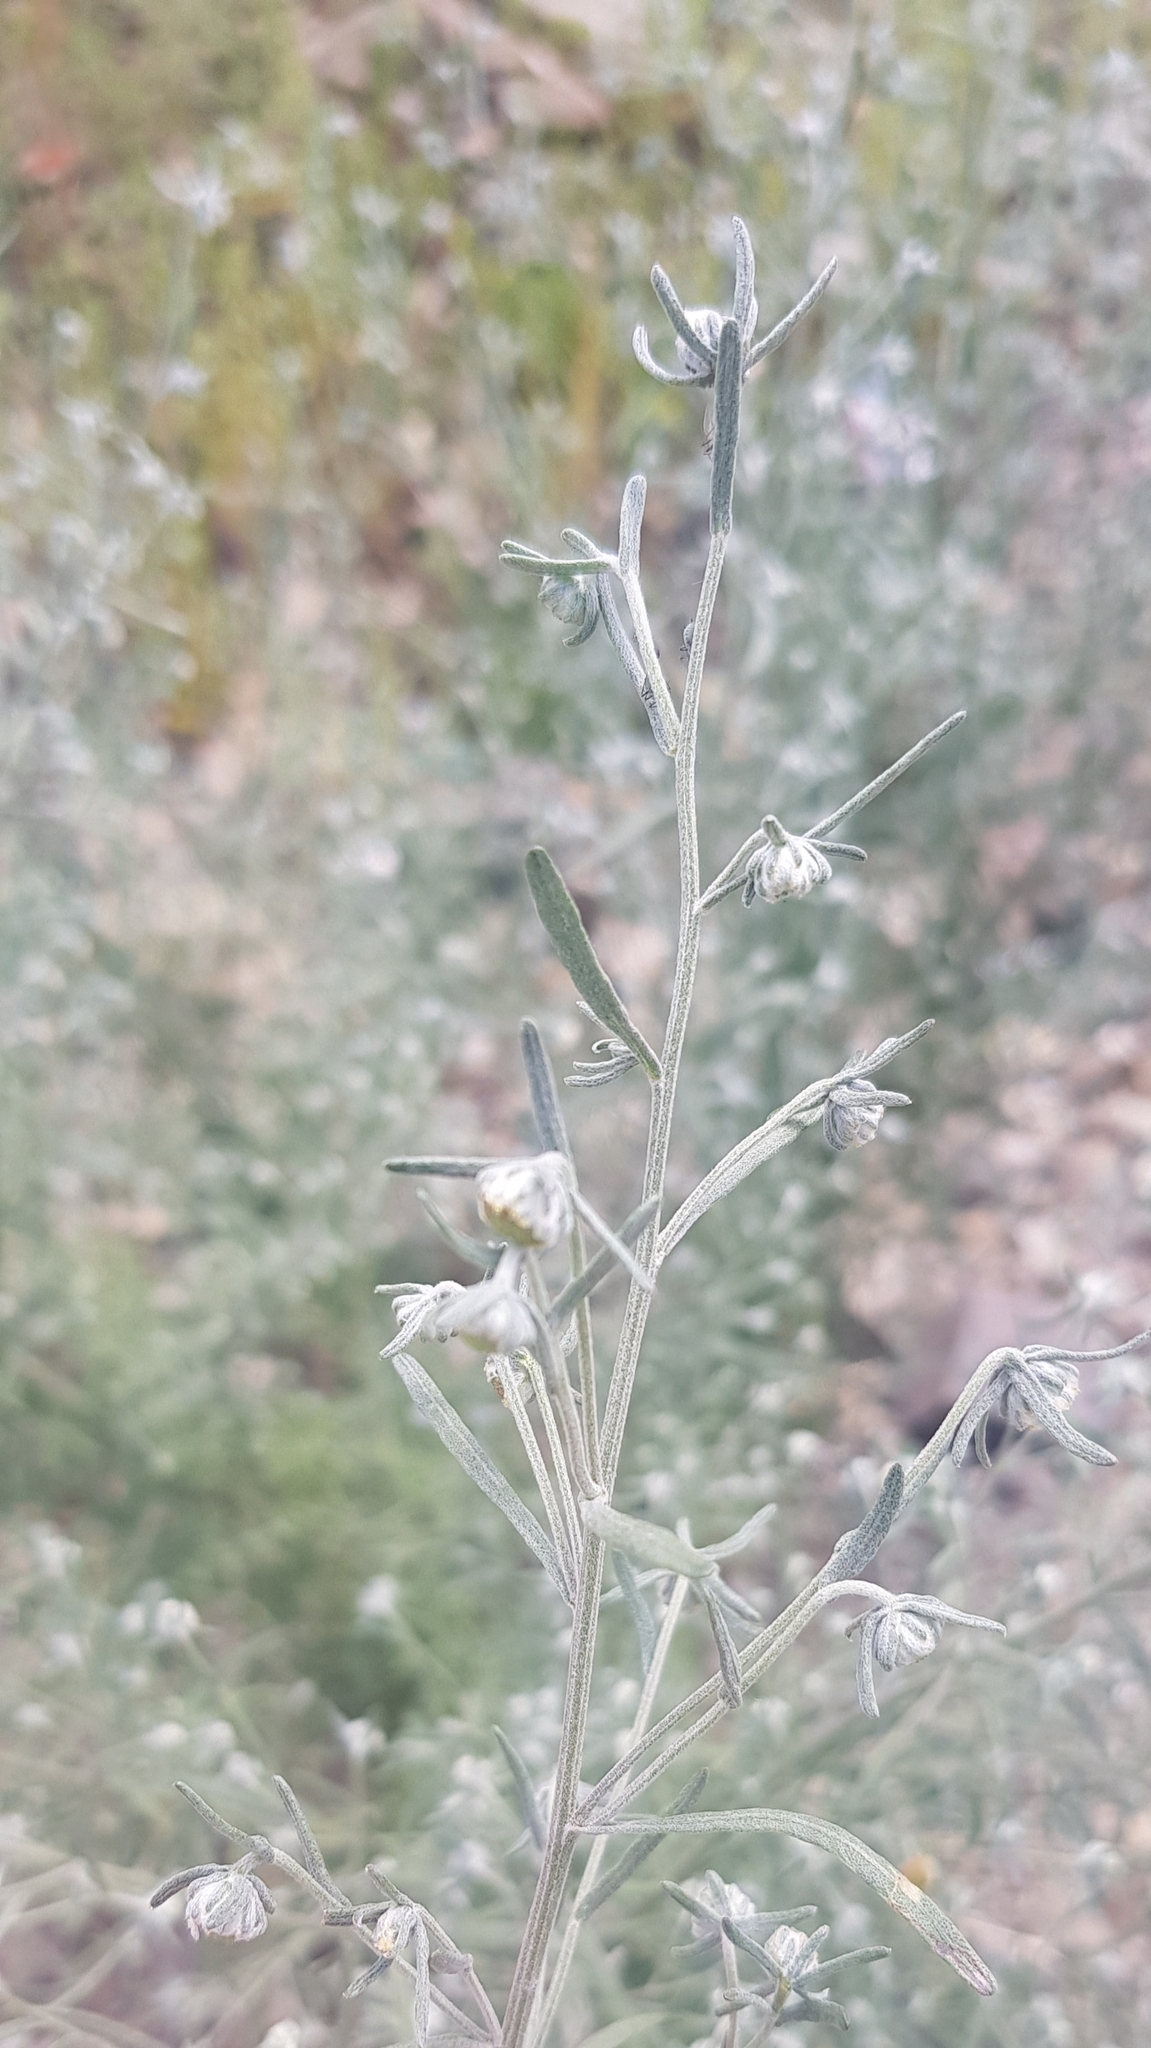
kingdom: Plantae
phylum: Tracheophyta
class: Magnoliopsida
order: Asterales
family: Asteraceae
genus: Artemisia
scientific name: Artemisia sieversiana
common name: Sieversian wormwood
